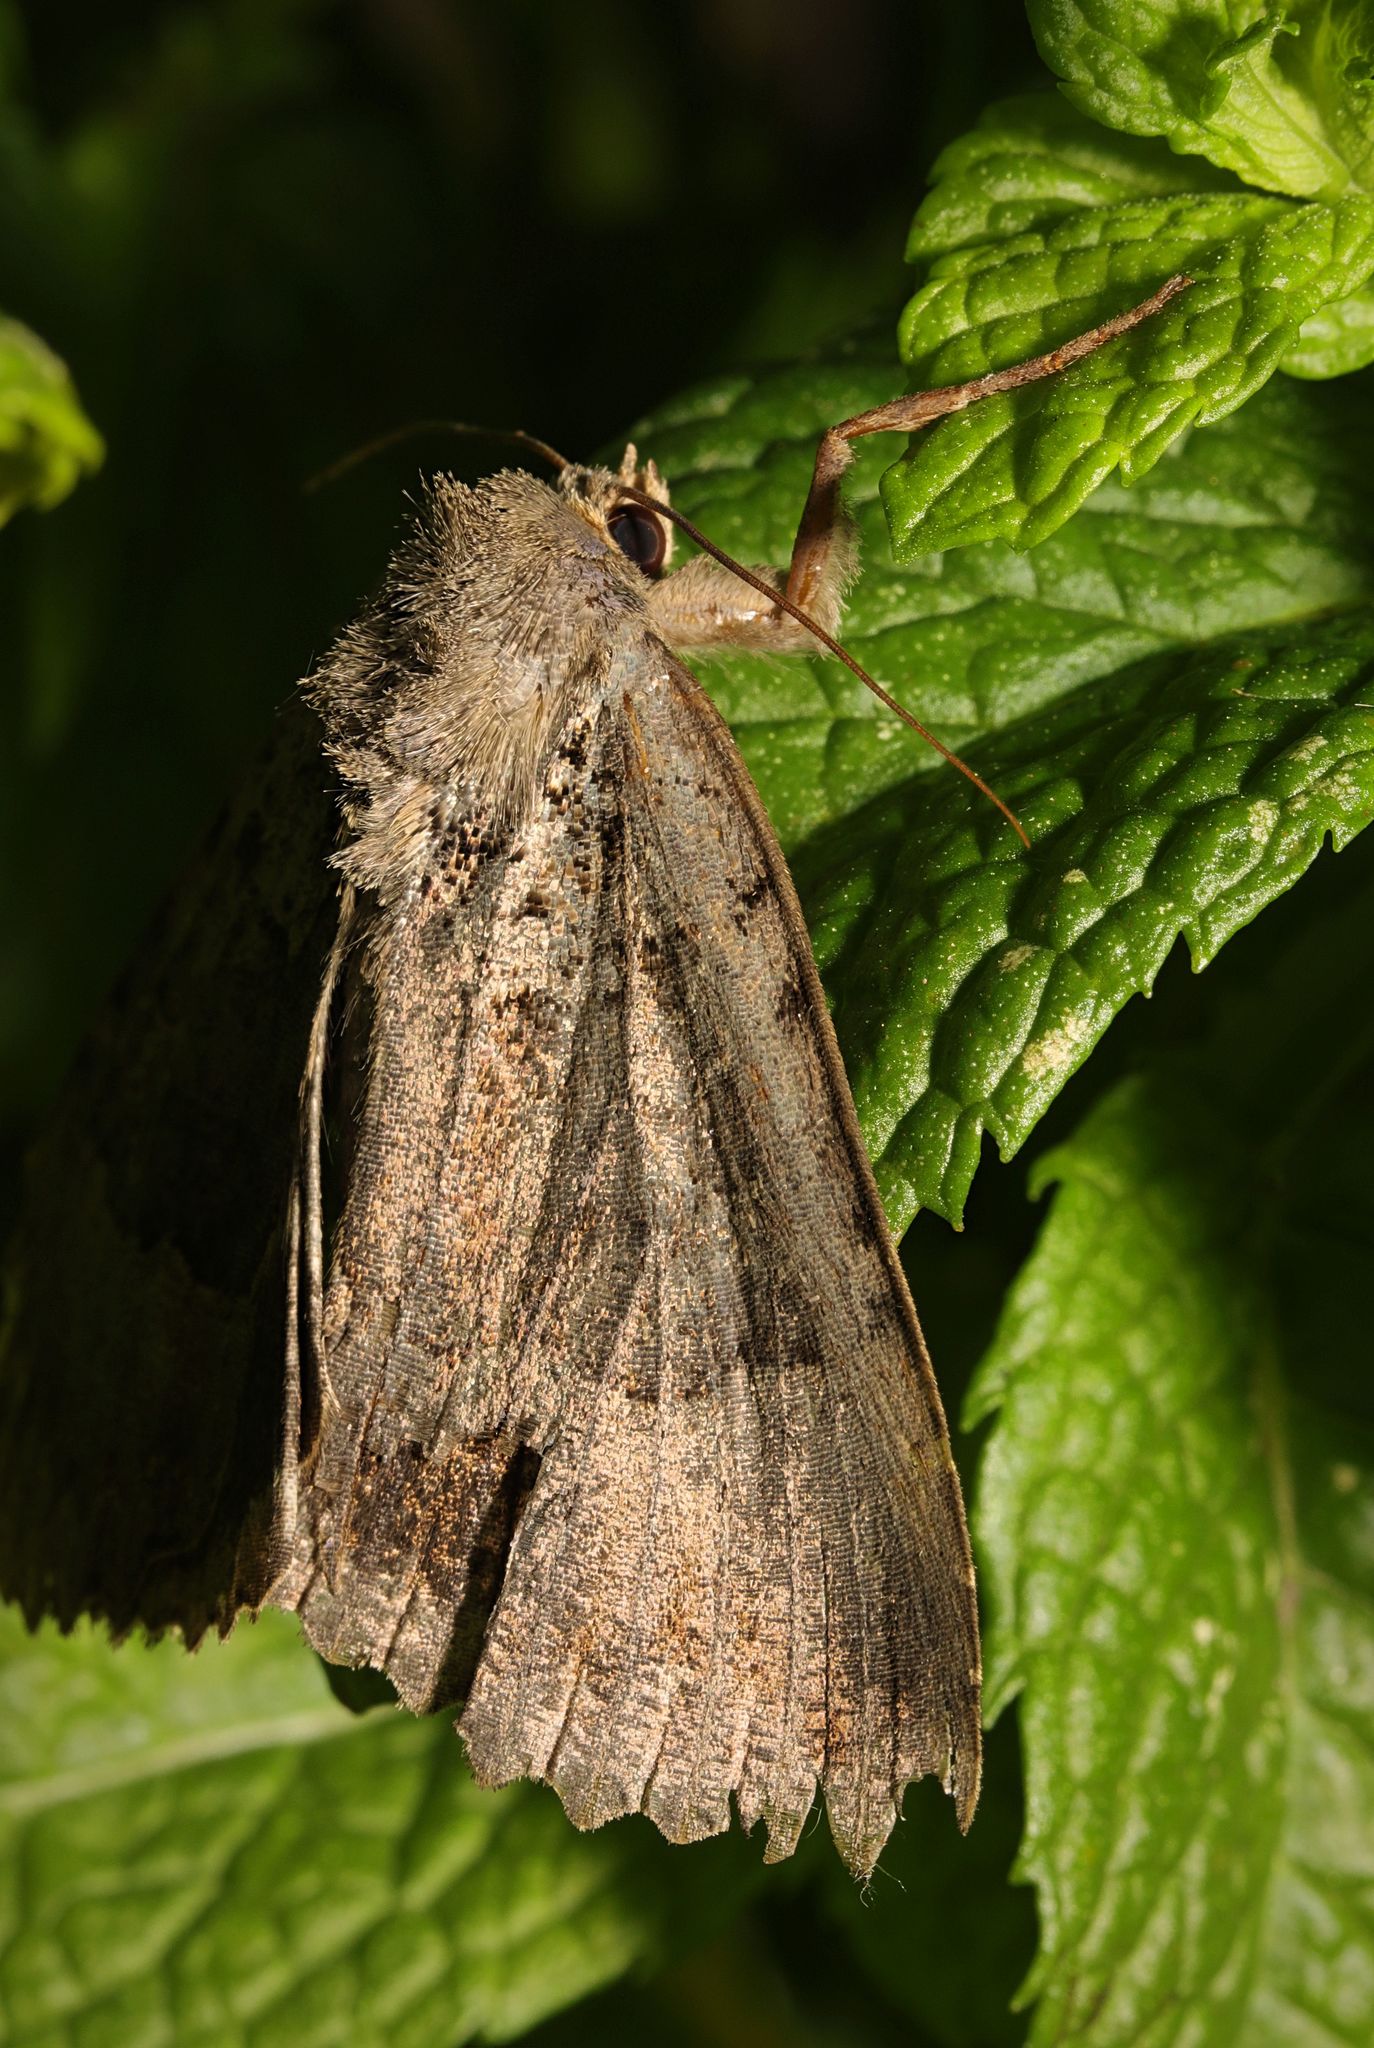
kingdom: Animalia
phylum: Arthropoda
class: Insecta
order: Lepidoptera
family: Noctuidae
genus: Mormo
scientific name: Mormo maura
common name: Old lady
